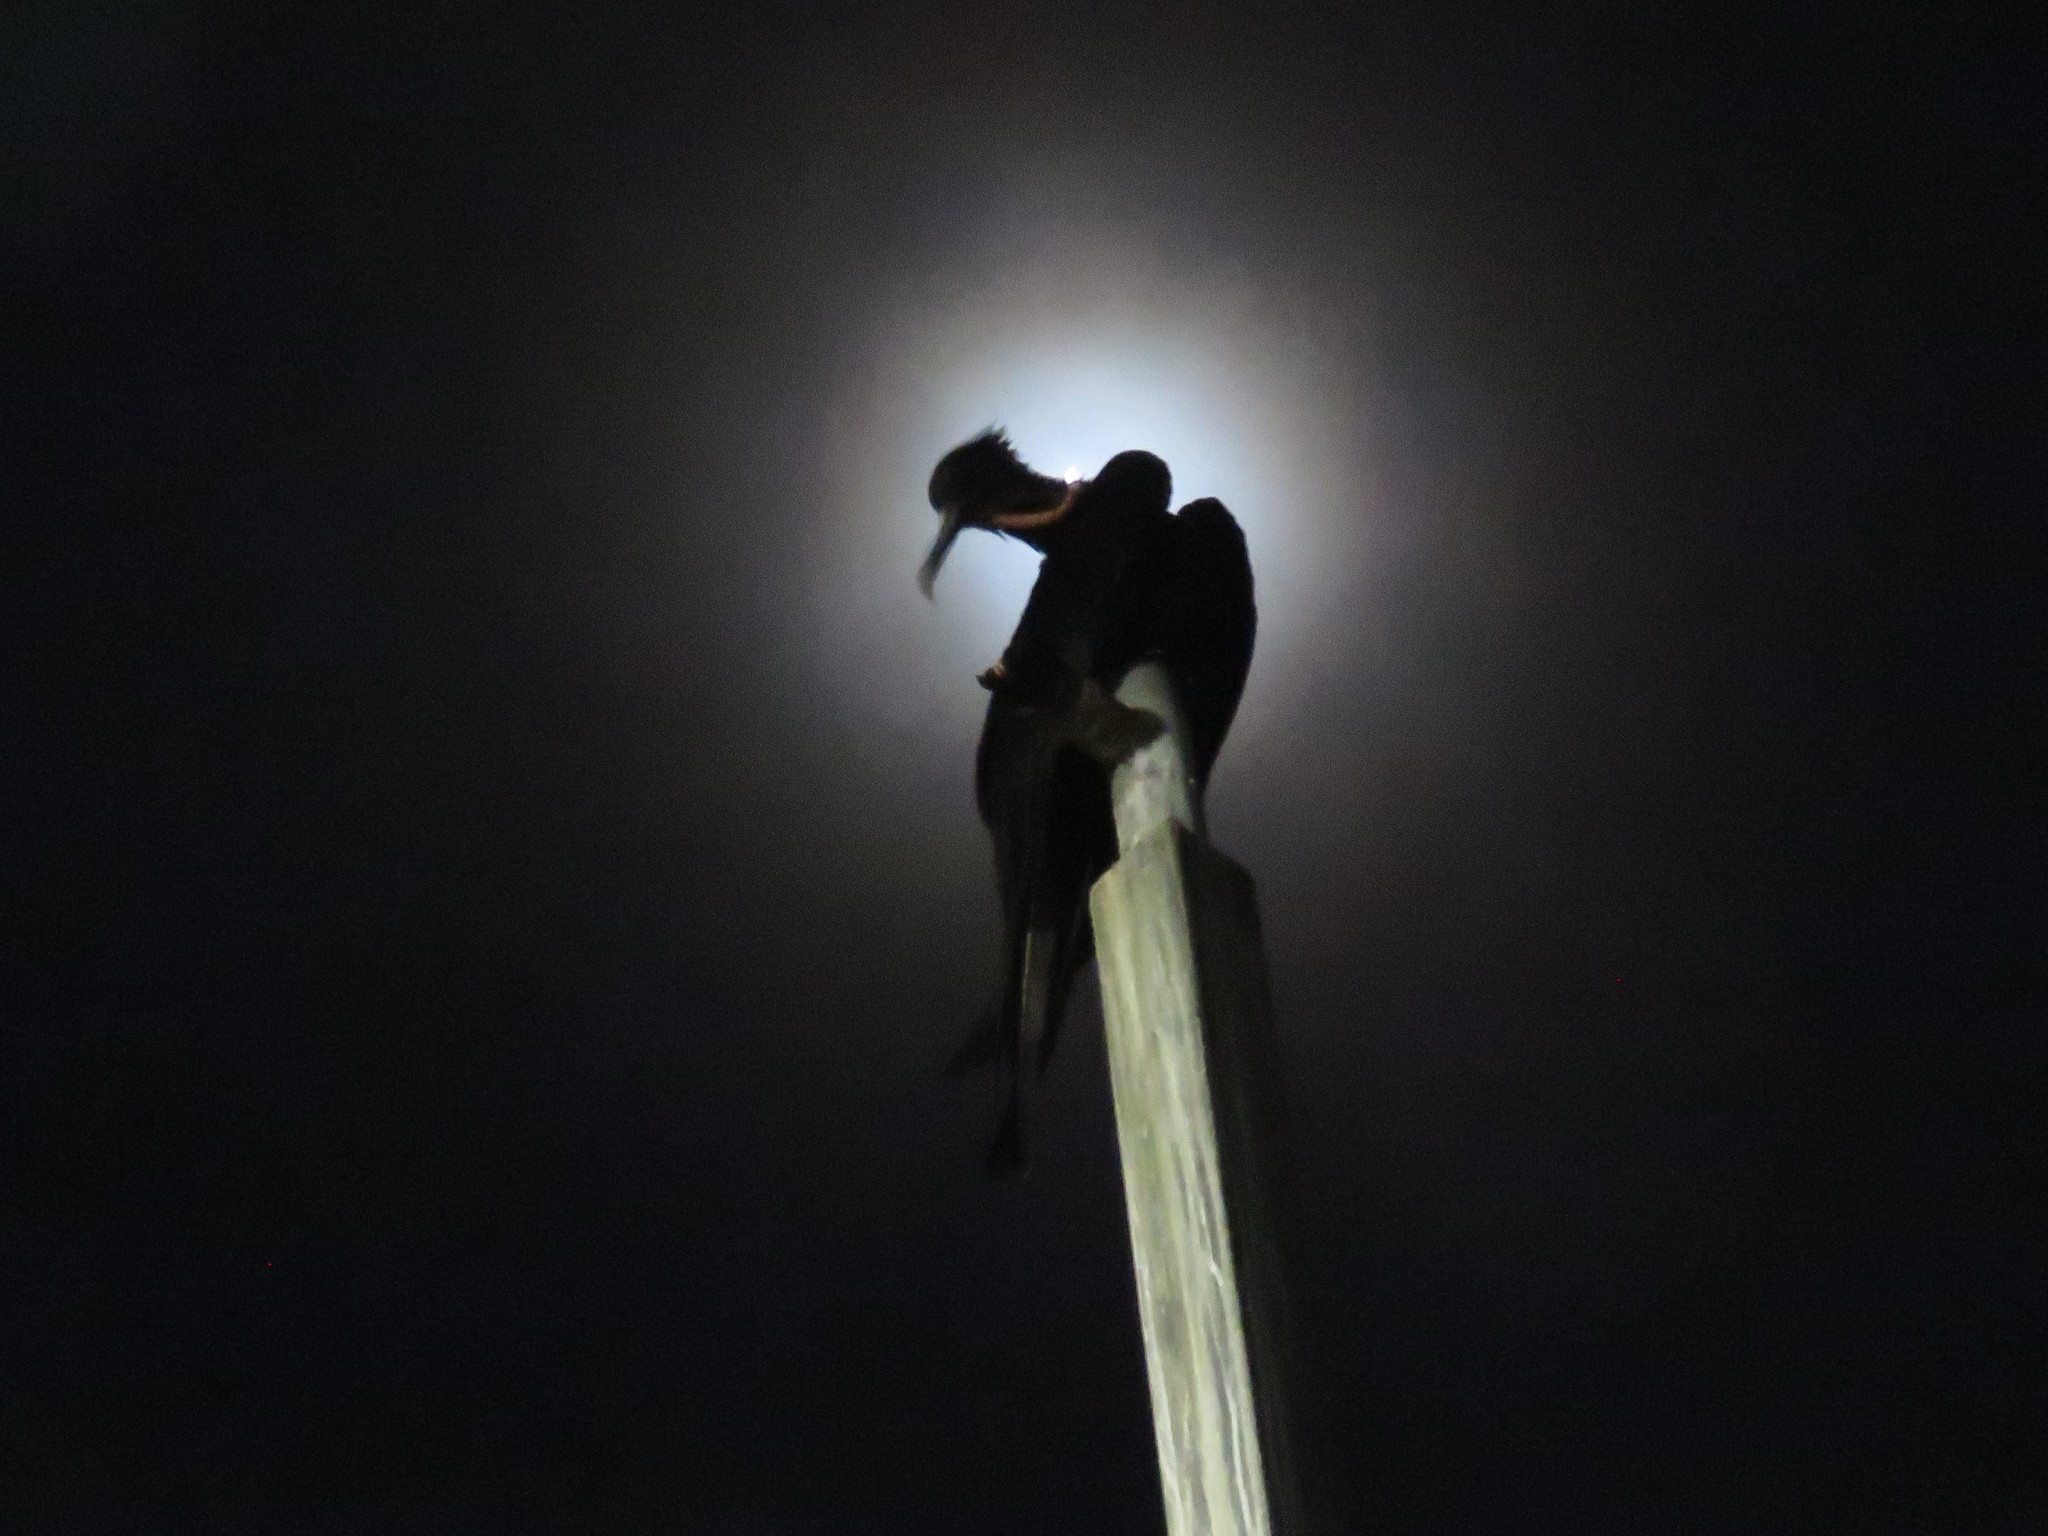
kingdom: Animalia
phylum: Chordata
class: Aves
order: Suliformes
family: Fregatidae
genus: Fregata
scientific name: Fregata magnificens
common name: Magnificent frigatebird
